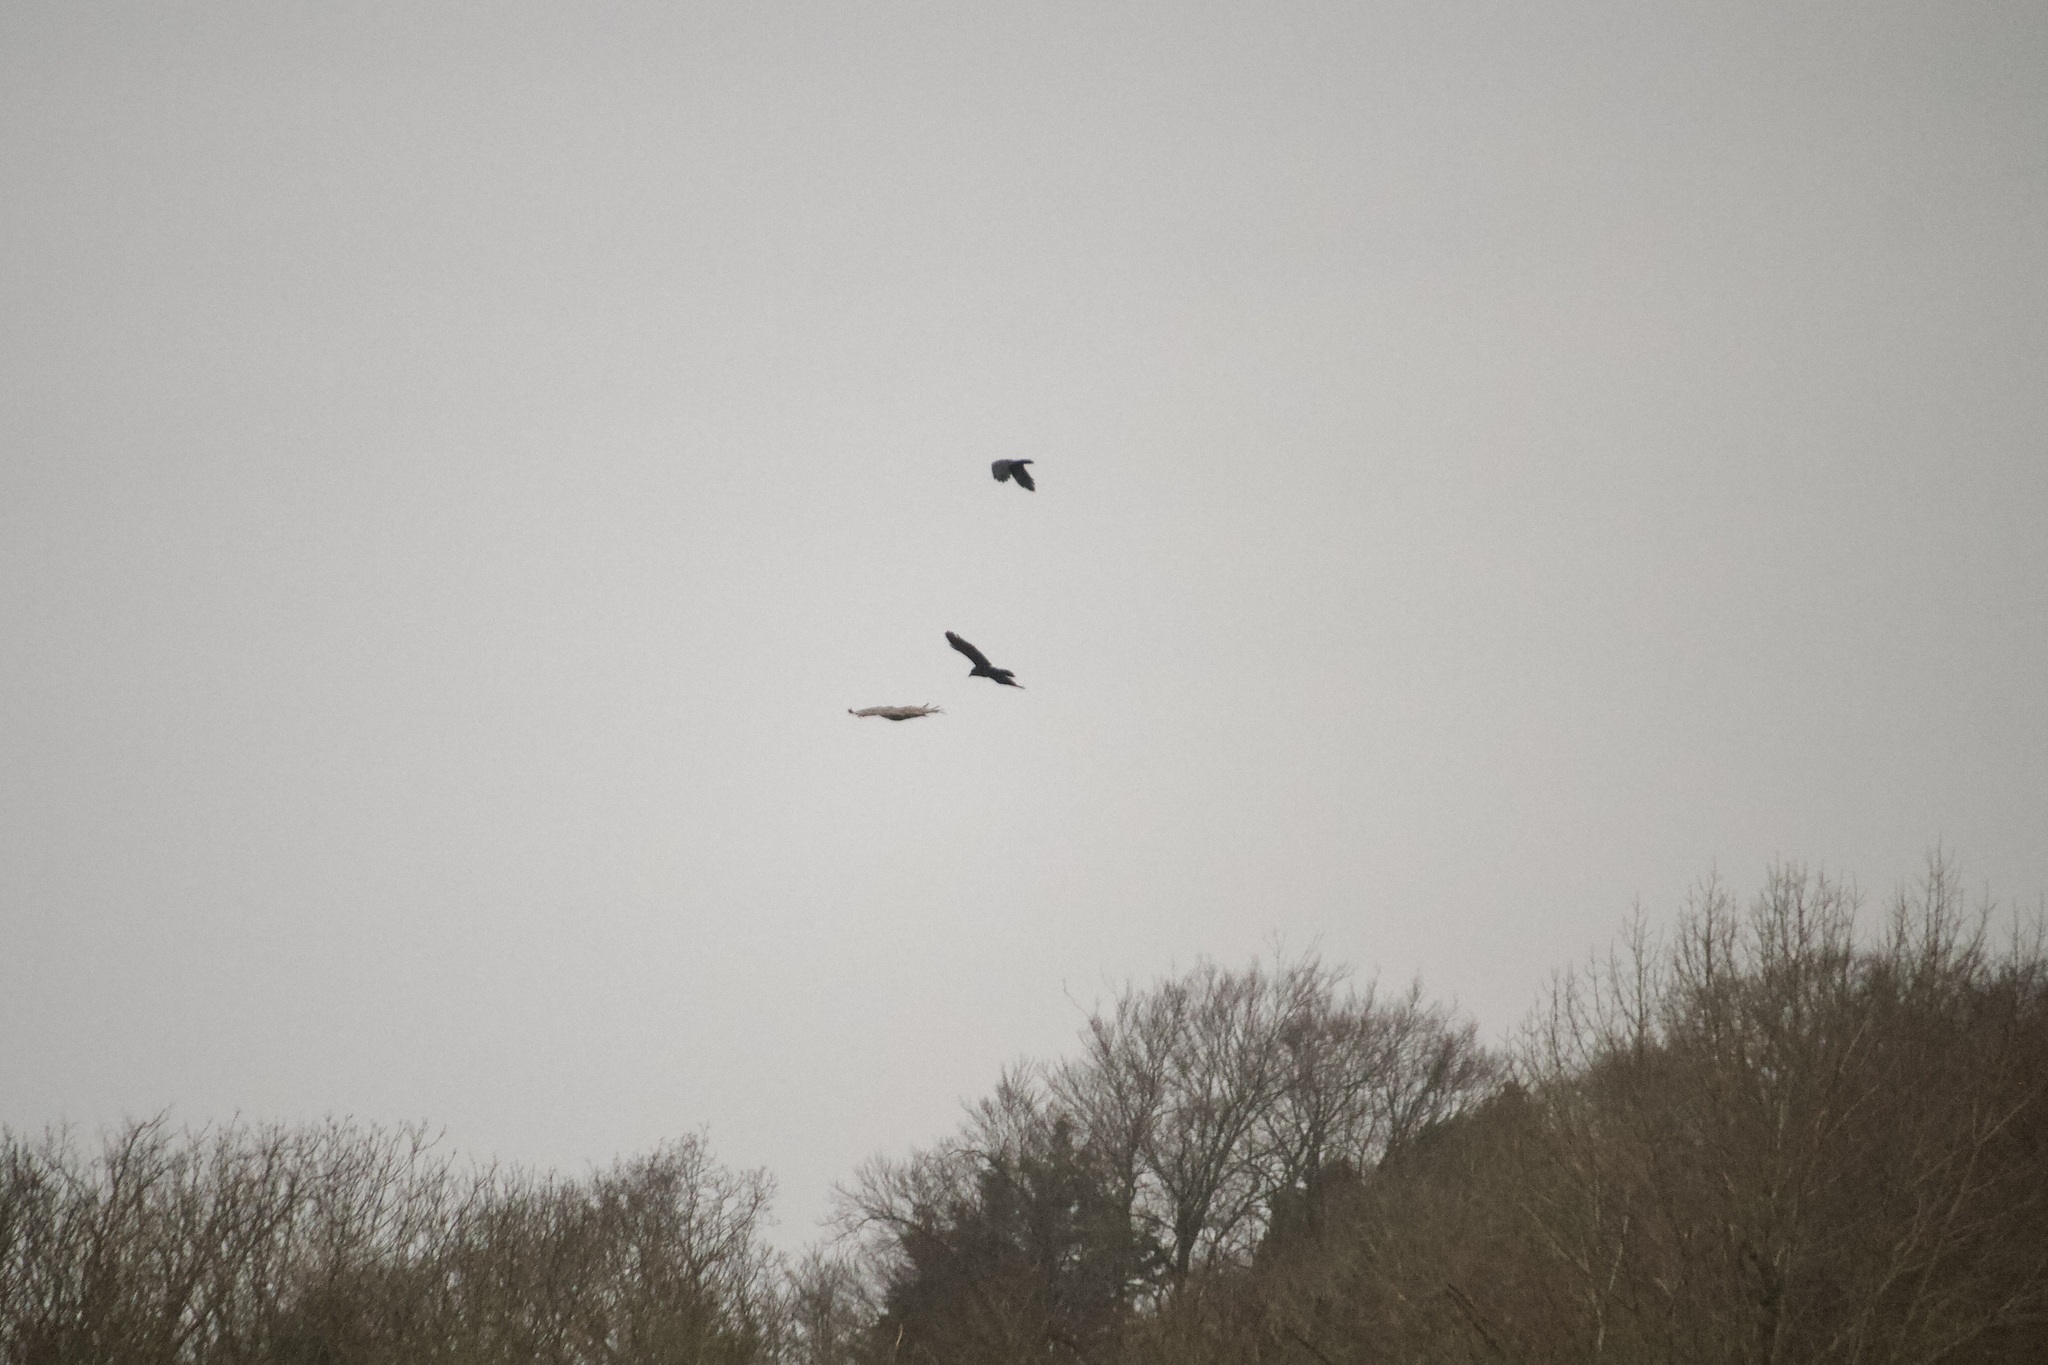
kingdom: Animalia
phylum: Chordata
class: Aves
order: Accipitriformes
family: Accipitridae
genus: Buteo
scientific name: Buteo buteo
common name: Common buzzard
